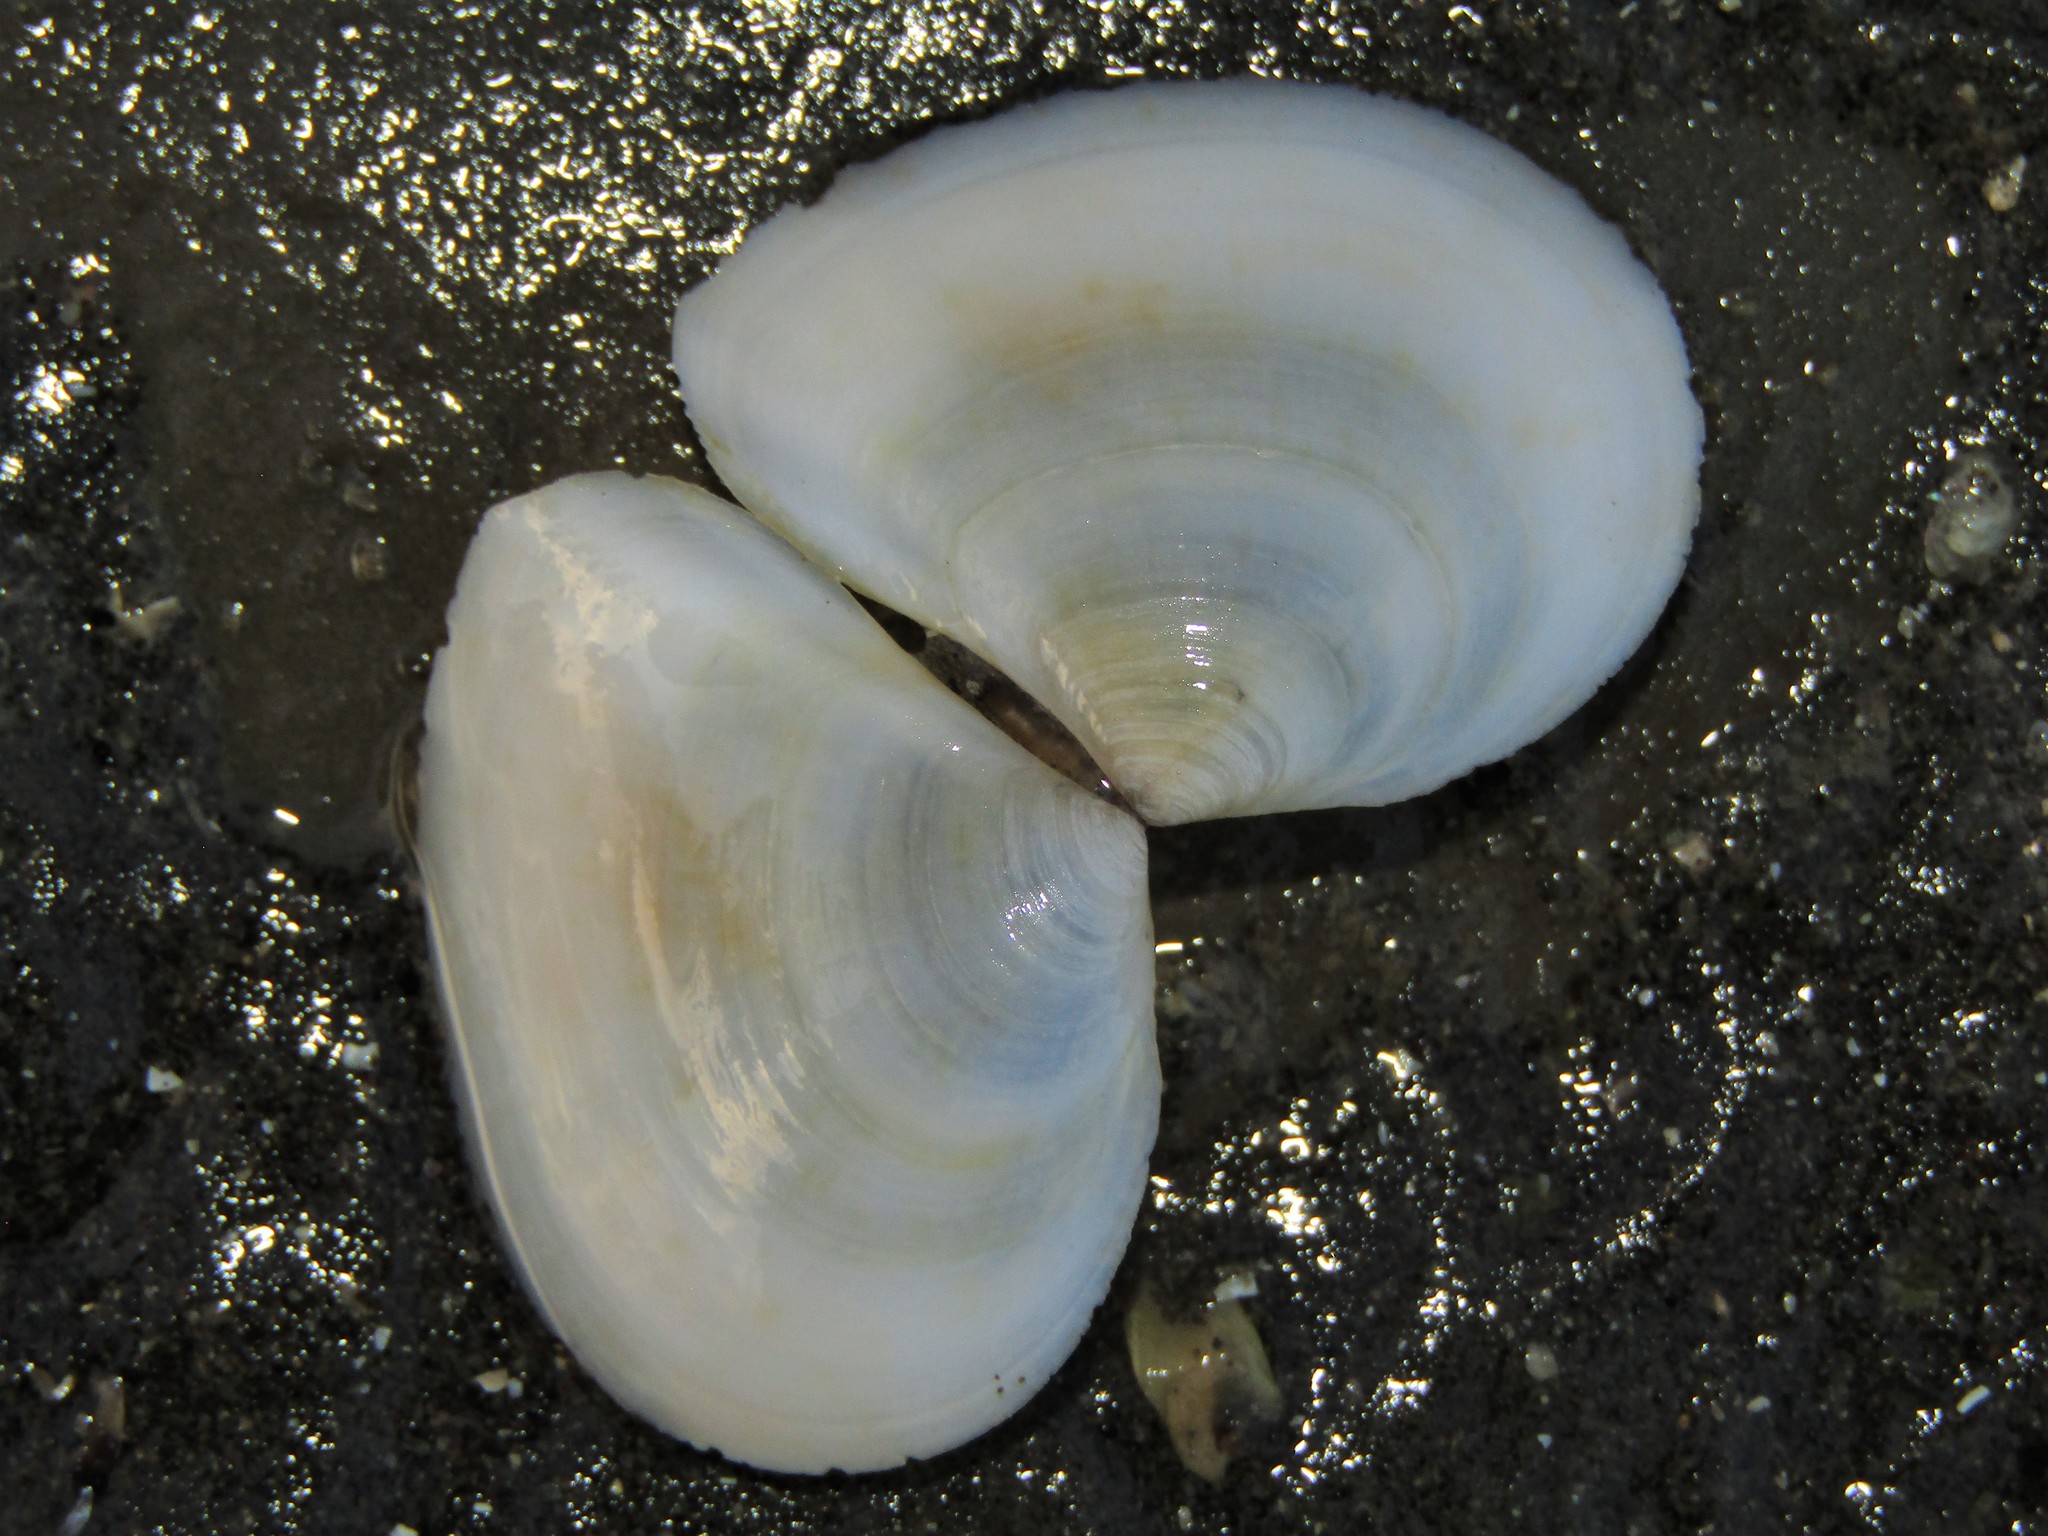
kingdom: Animalia
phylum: Mollusca
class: Bivalvia
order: Cardiida
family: Tellinidae
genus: Macomona
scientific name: Macomona liliana
